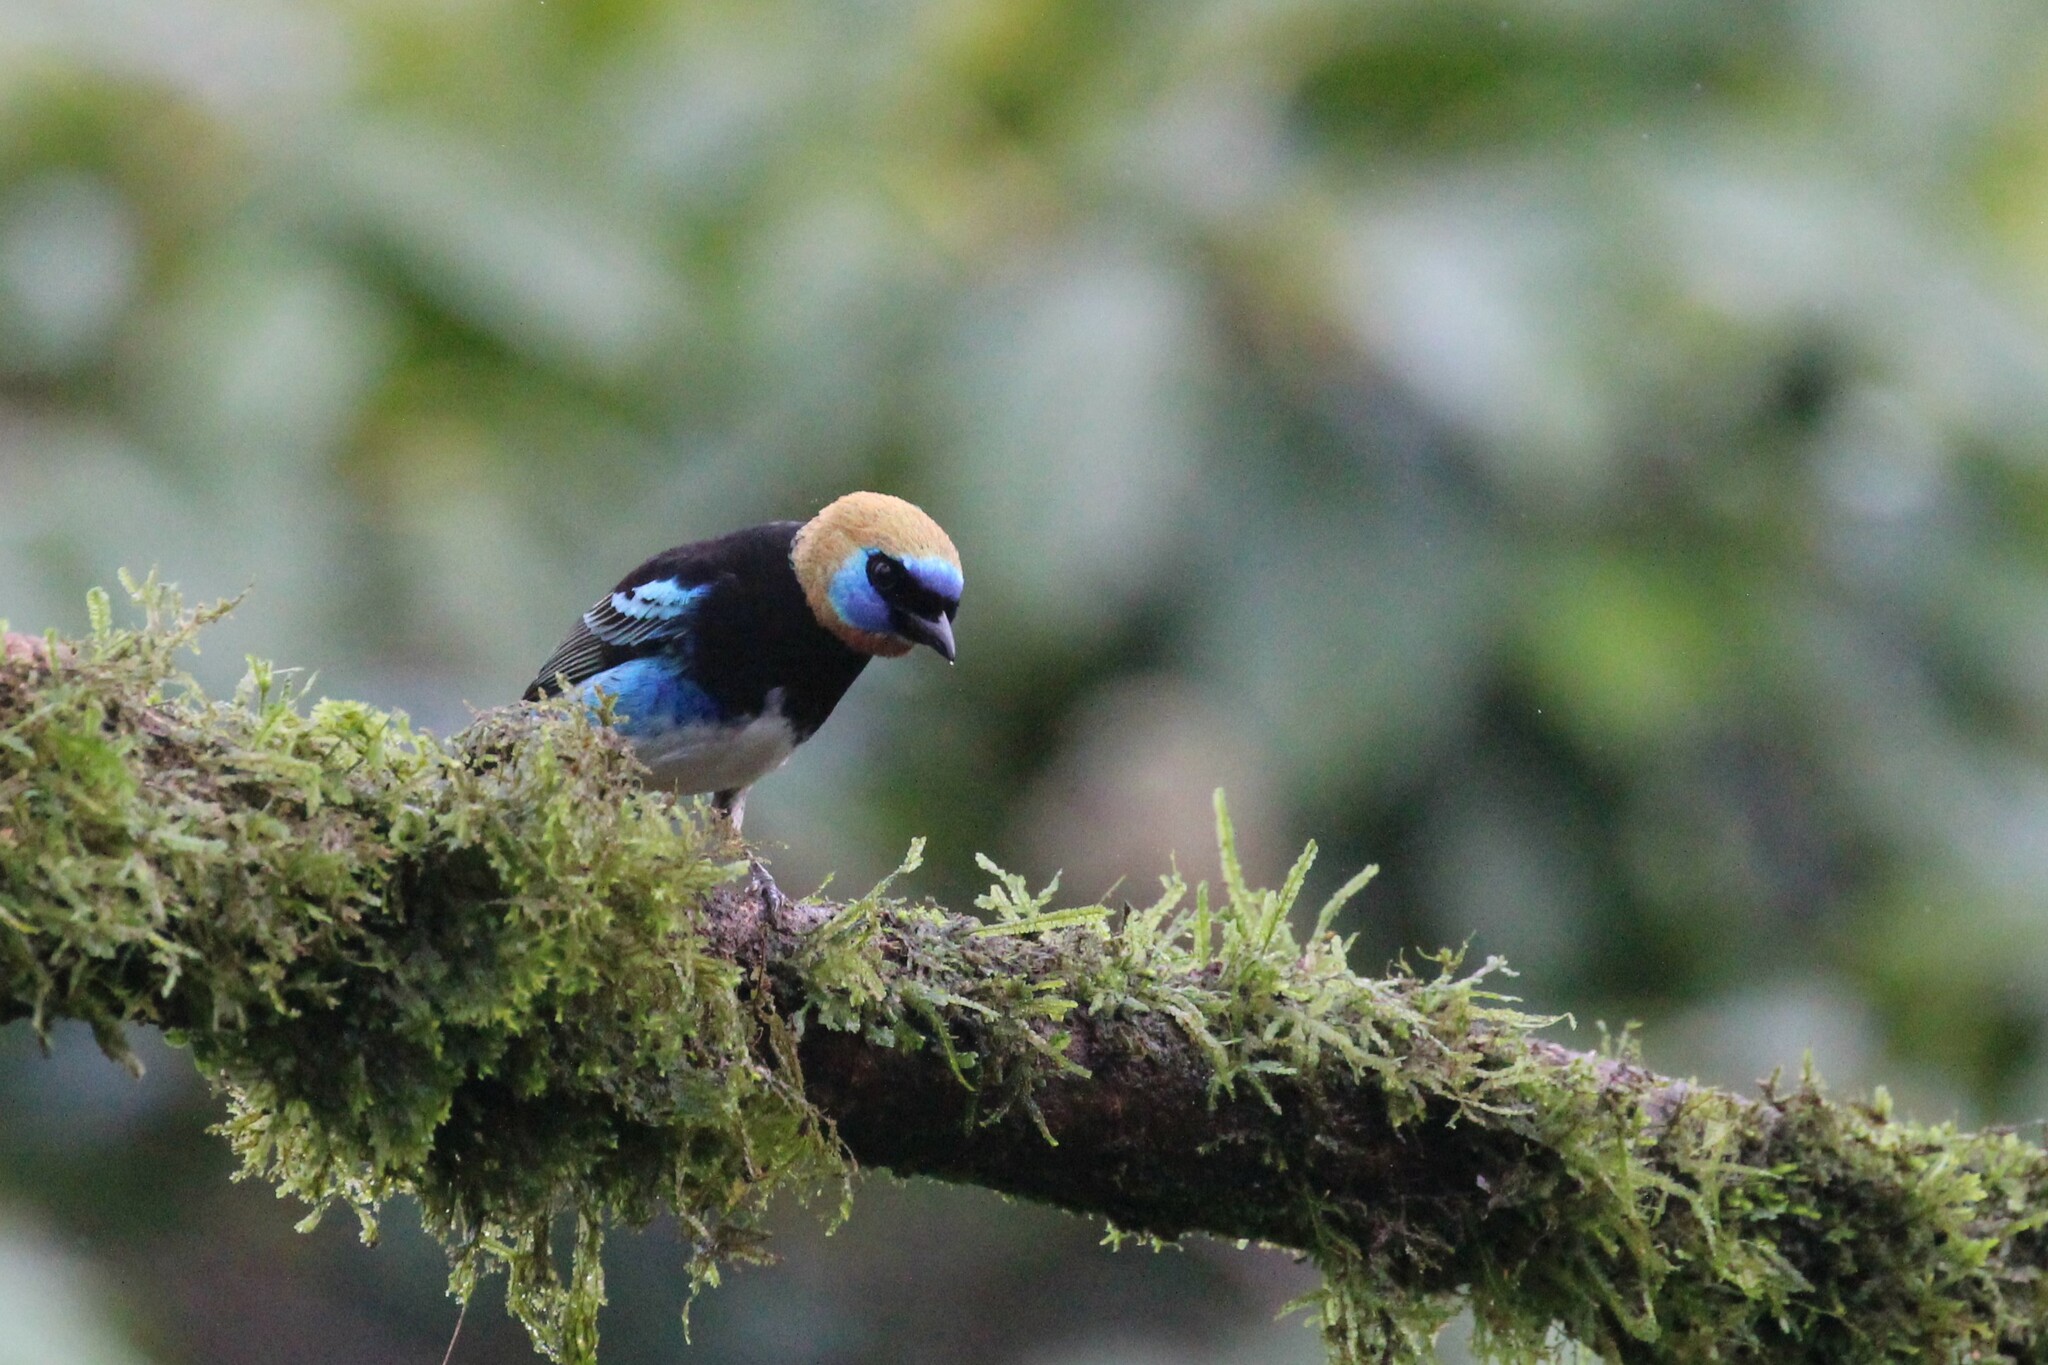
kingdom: Animalia
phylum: Chordata
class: Aves
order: Passeriformes
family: Thraupidae
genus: Stilpnia
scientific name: Stilpnia larvata
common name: Golden-hooded tanager
